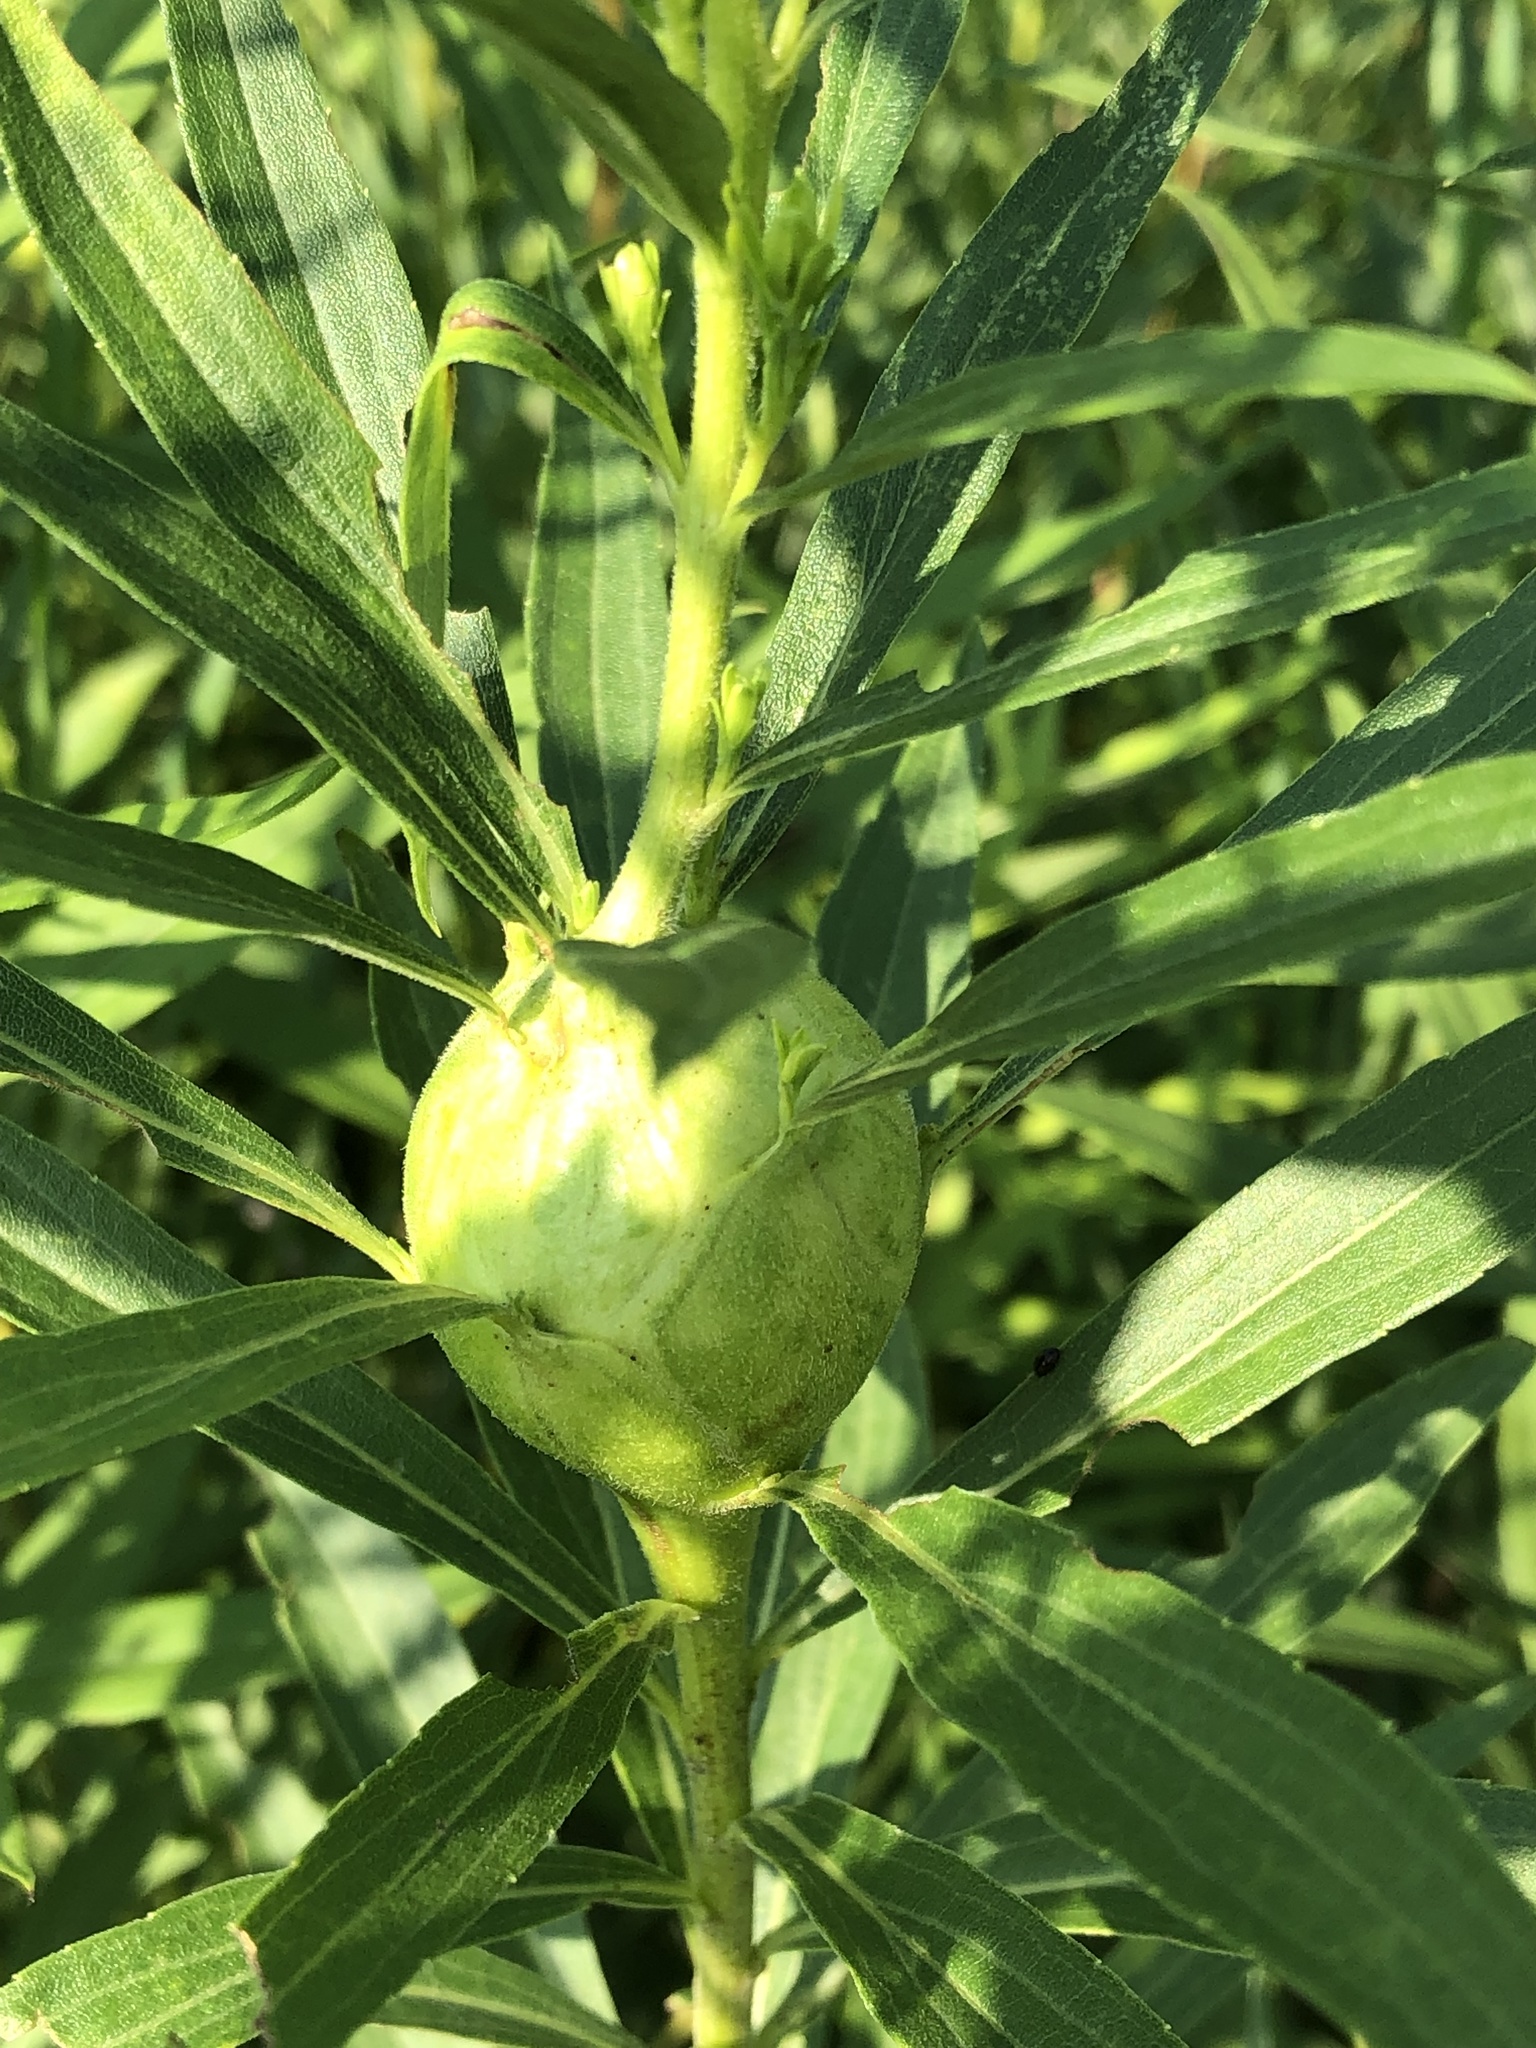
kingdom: Animalia
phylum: Arthropoda
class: Insecta
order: Diptera
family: Tephritidae
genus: Eurosta
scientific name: Eurosta solidaginis
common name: Goldenrod gall fly
